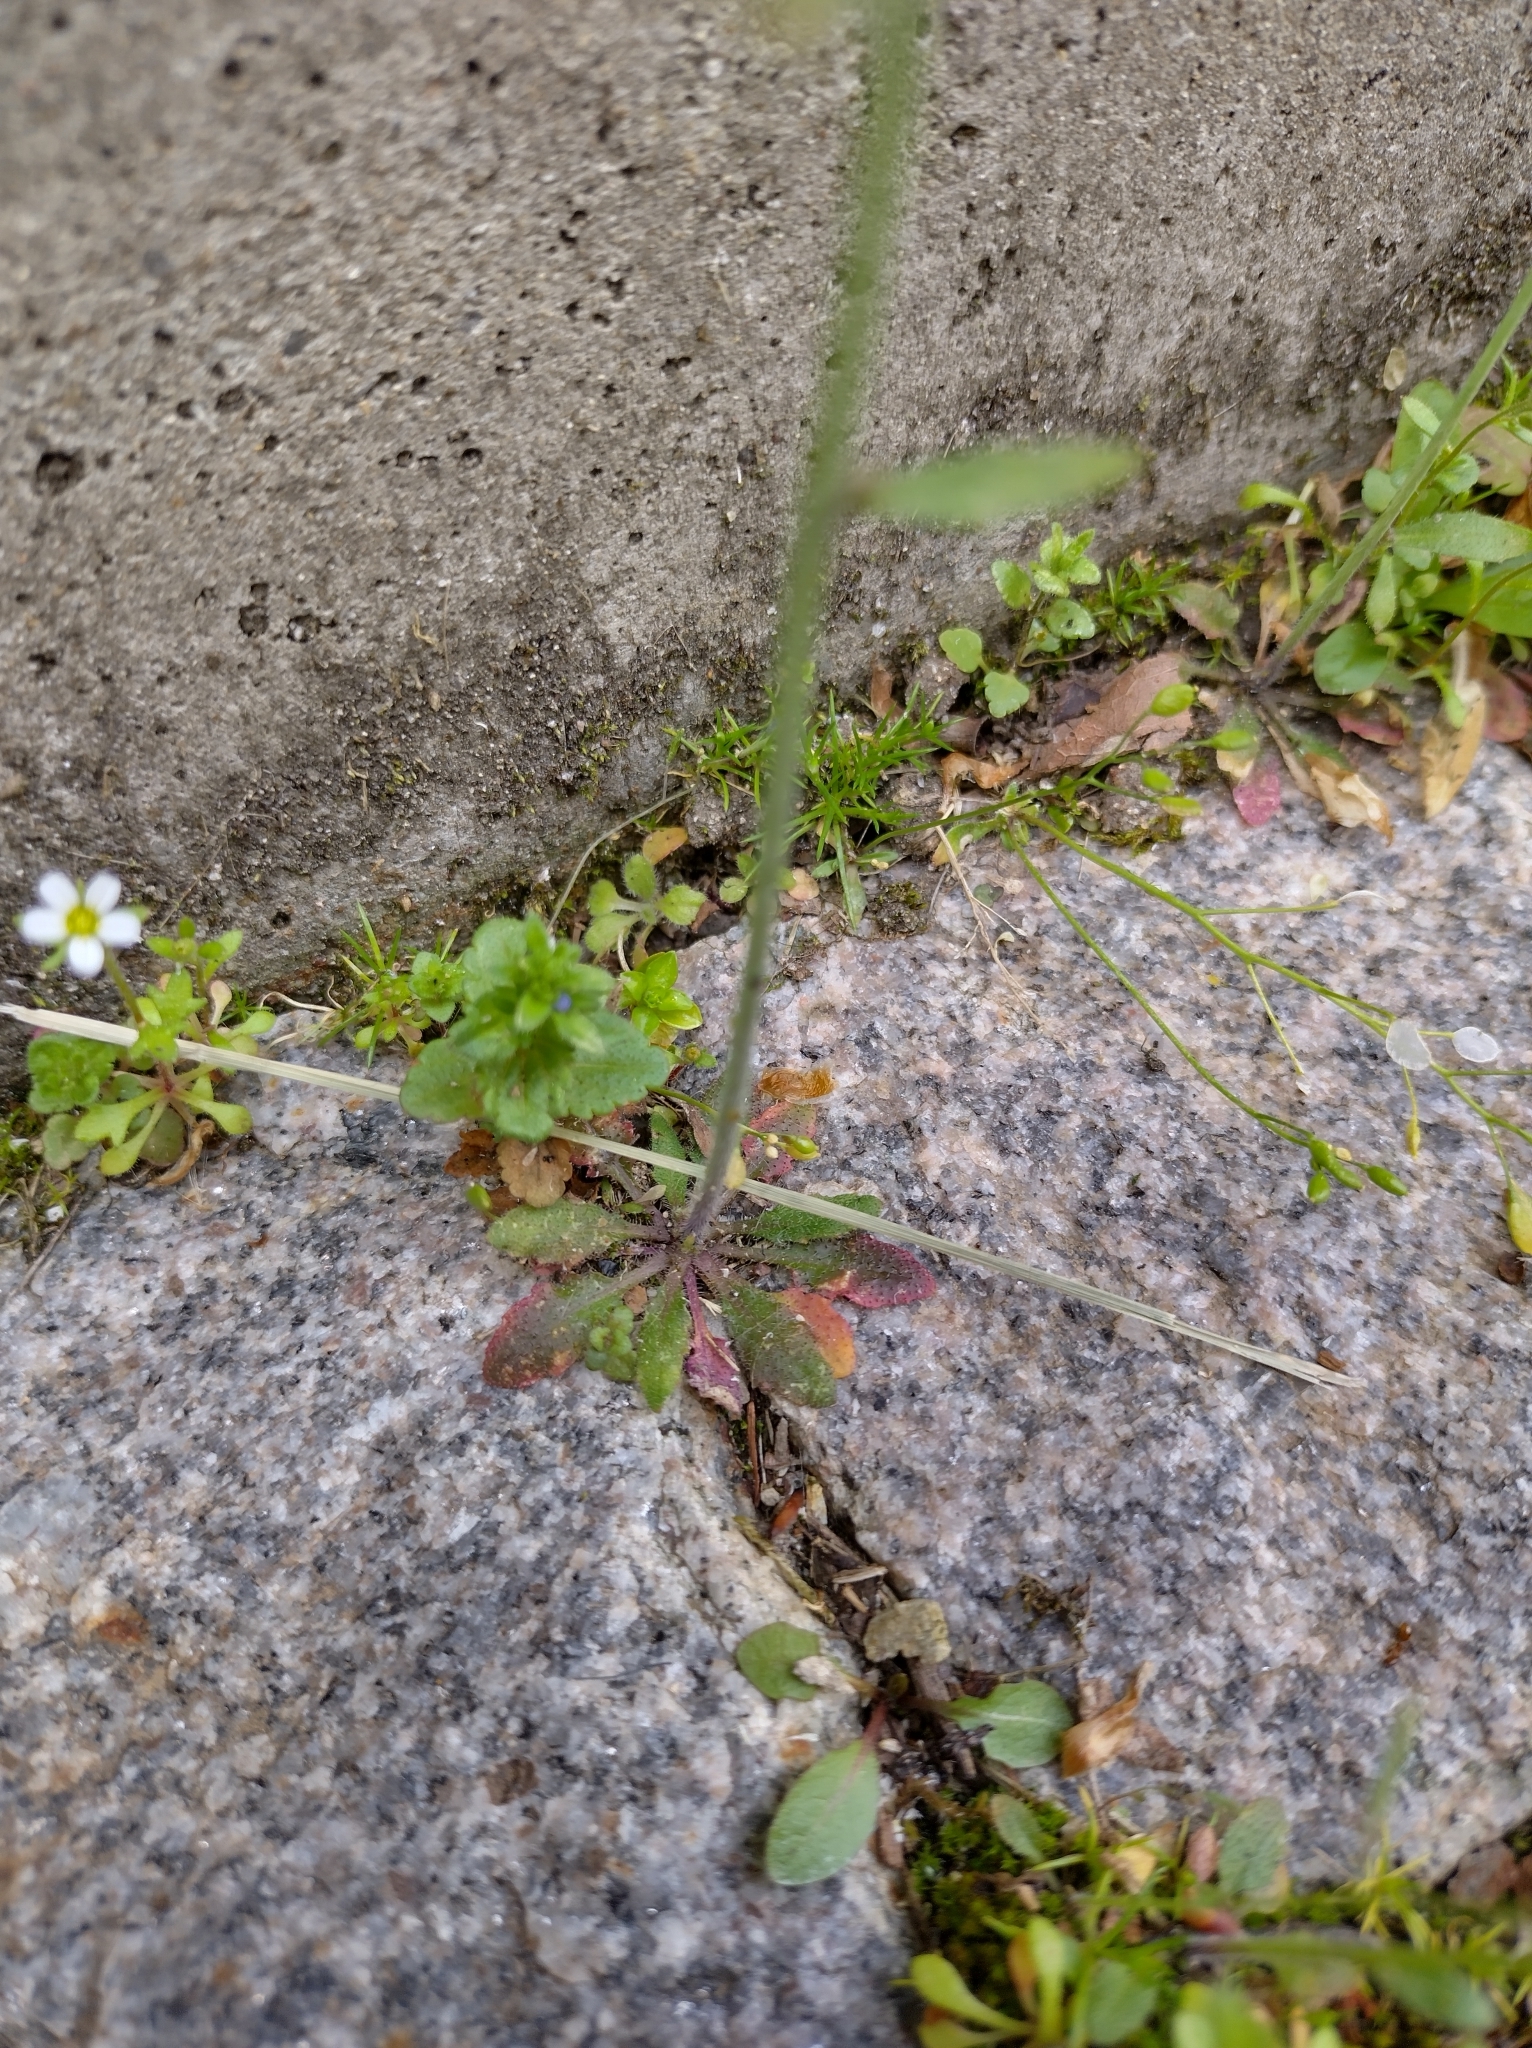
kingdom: Plantae
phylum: Tracheophyta
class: Magnoliopsida
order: Brassicales
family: Brassicaceae
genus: Arabidopsis
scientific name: Arabidopsis thaliana
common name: Thale cress
